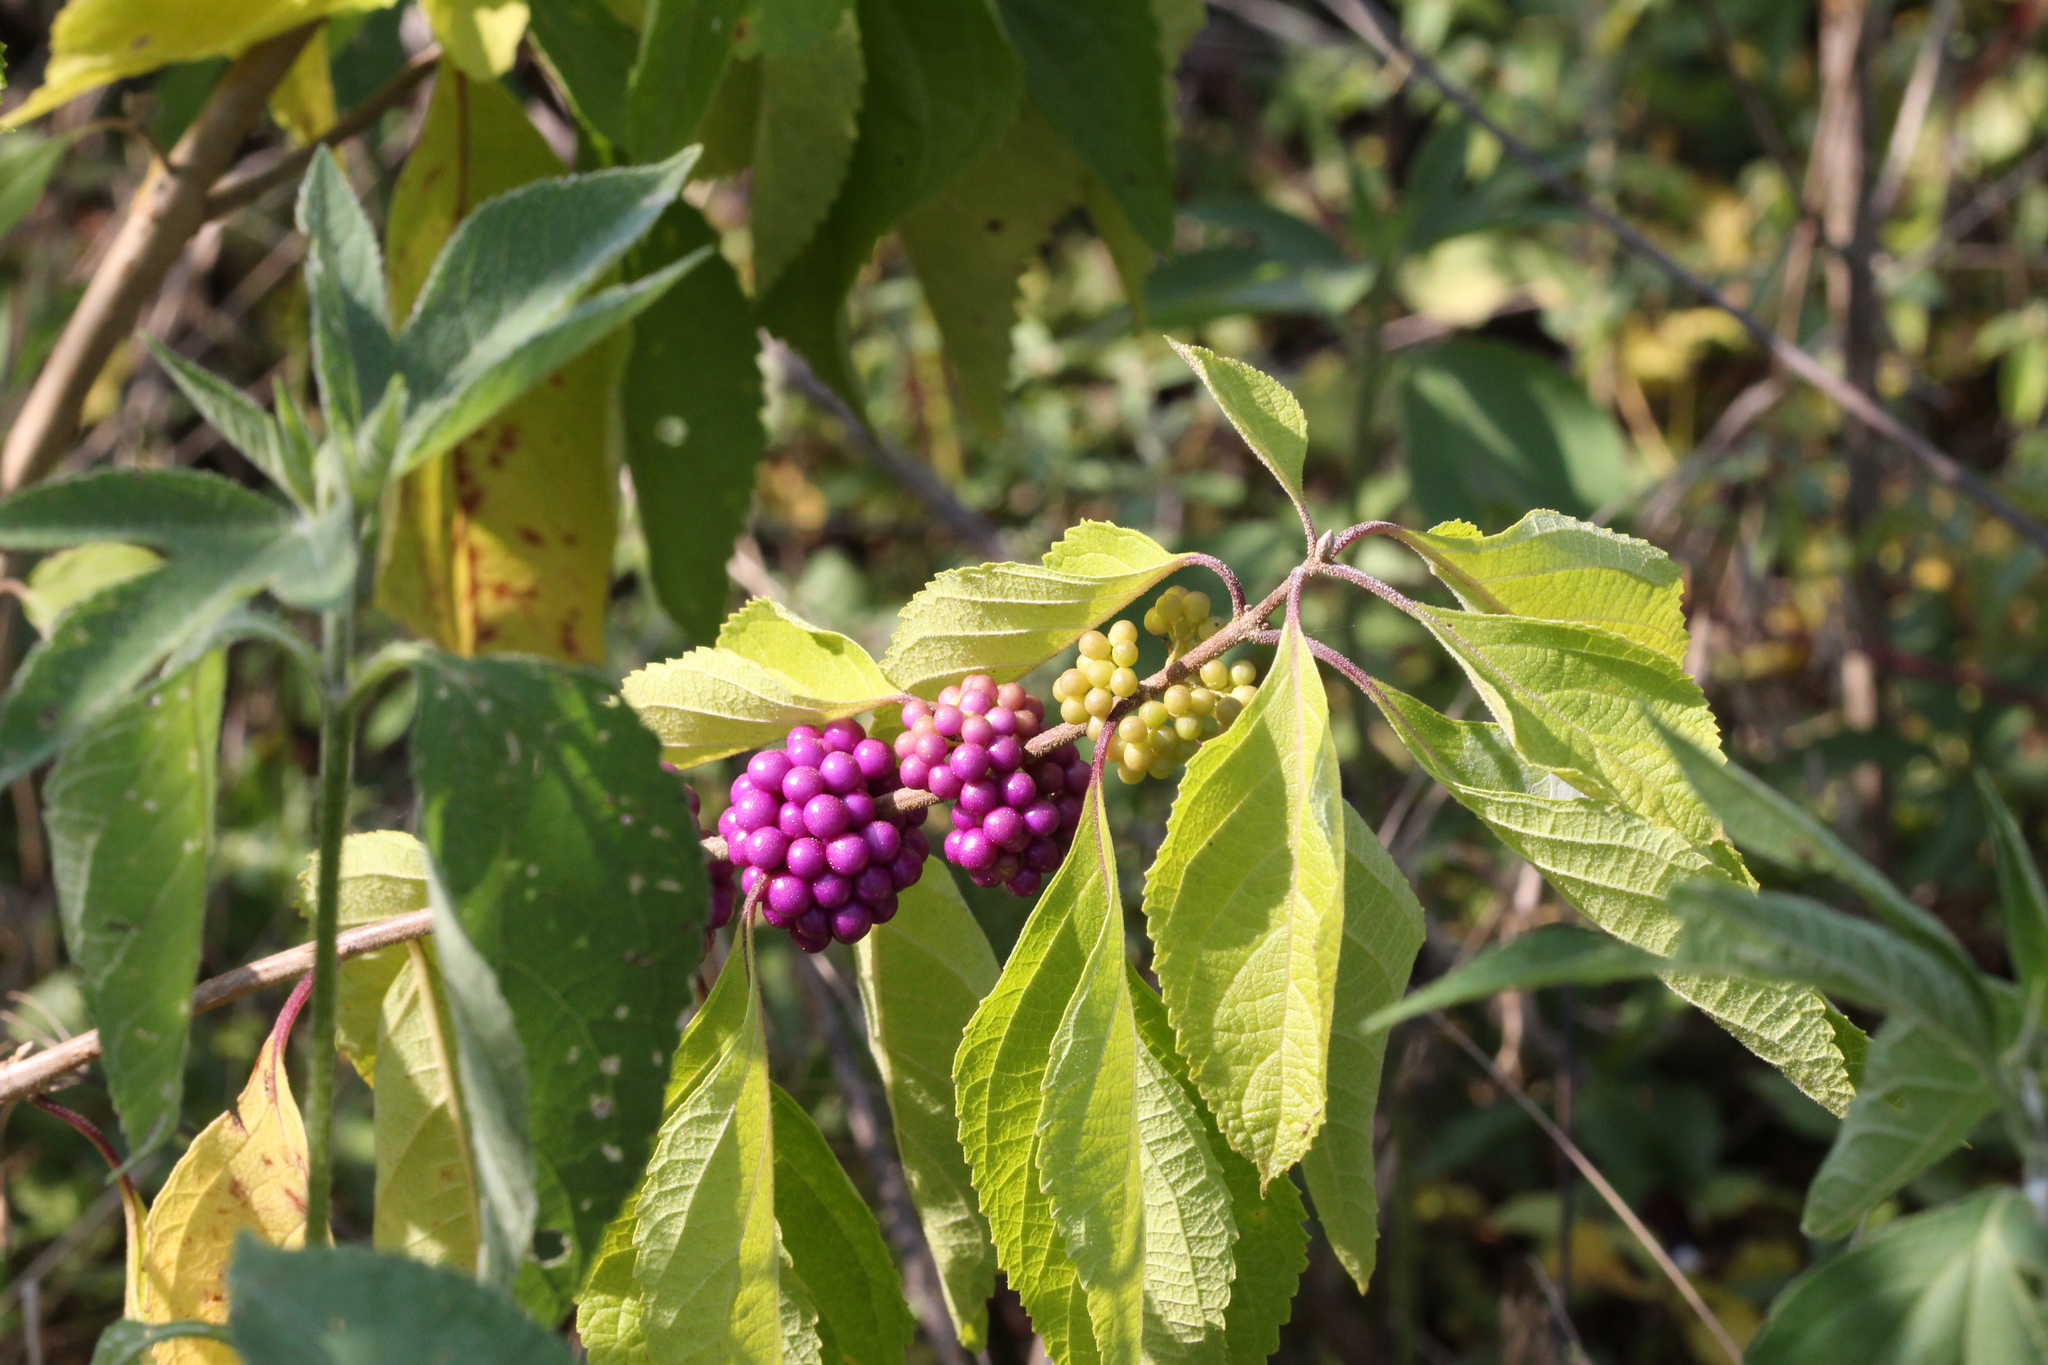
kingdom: Plantae
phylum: Tracheophyta
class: Magnoliopsida
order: Lamiales
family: Lamiaceae
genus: Callicarpa
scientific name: Callicarpa americana
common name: American beautyberry
